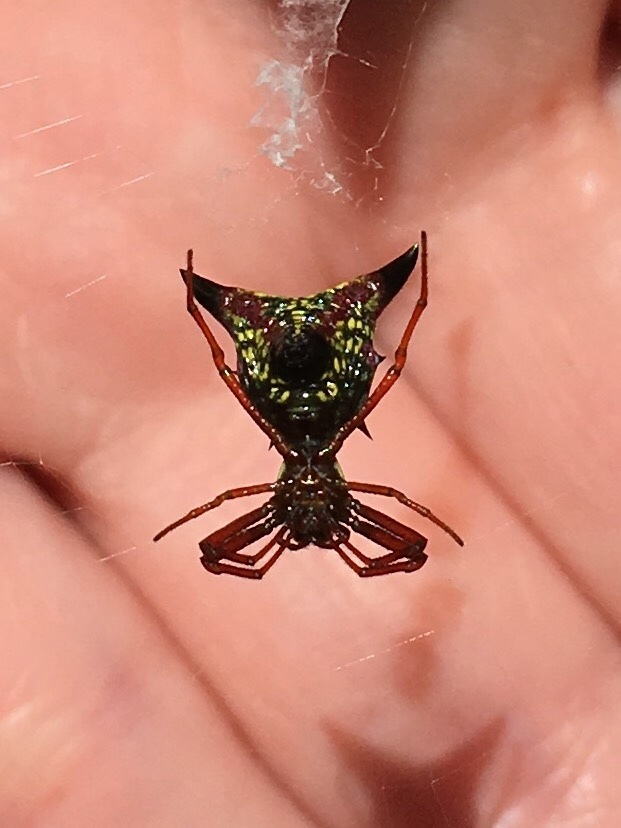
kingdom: Animalia
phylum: Arthropoda
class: Arachnida
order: Araneae
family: Araneidae
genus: Micrathena
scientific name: Micrathena sagittata
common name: Orb weavers
